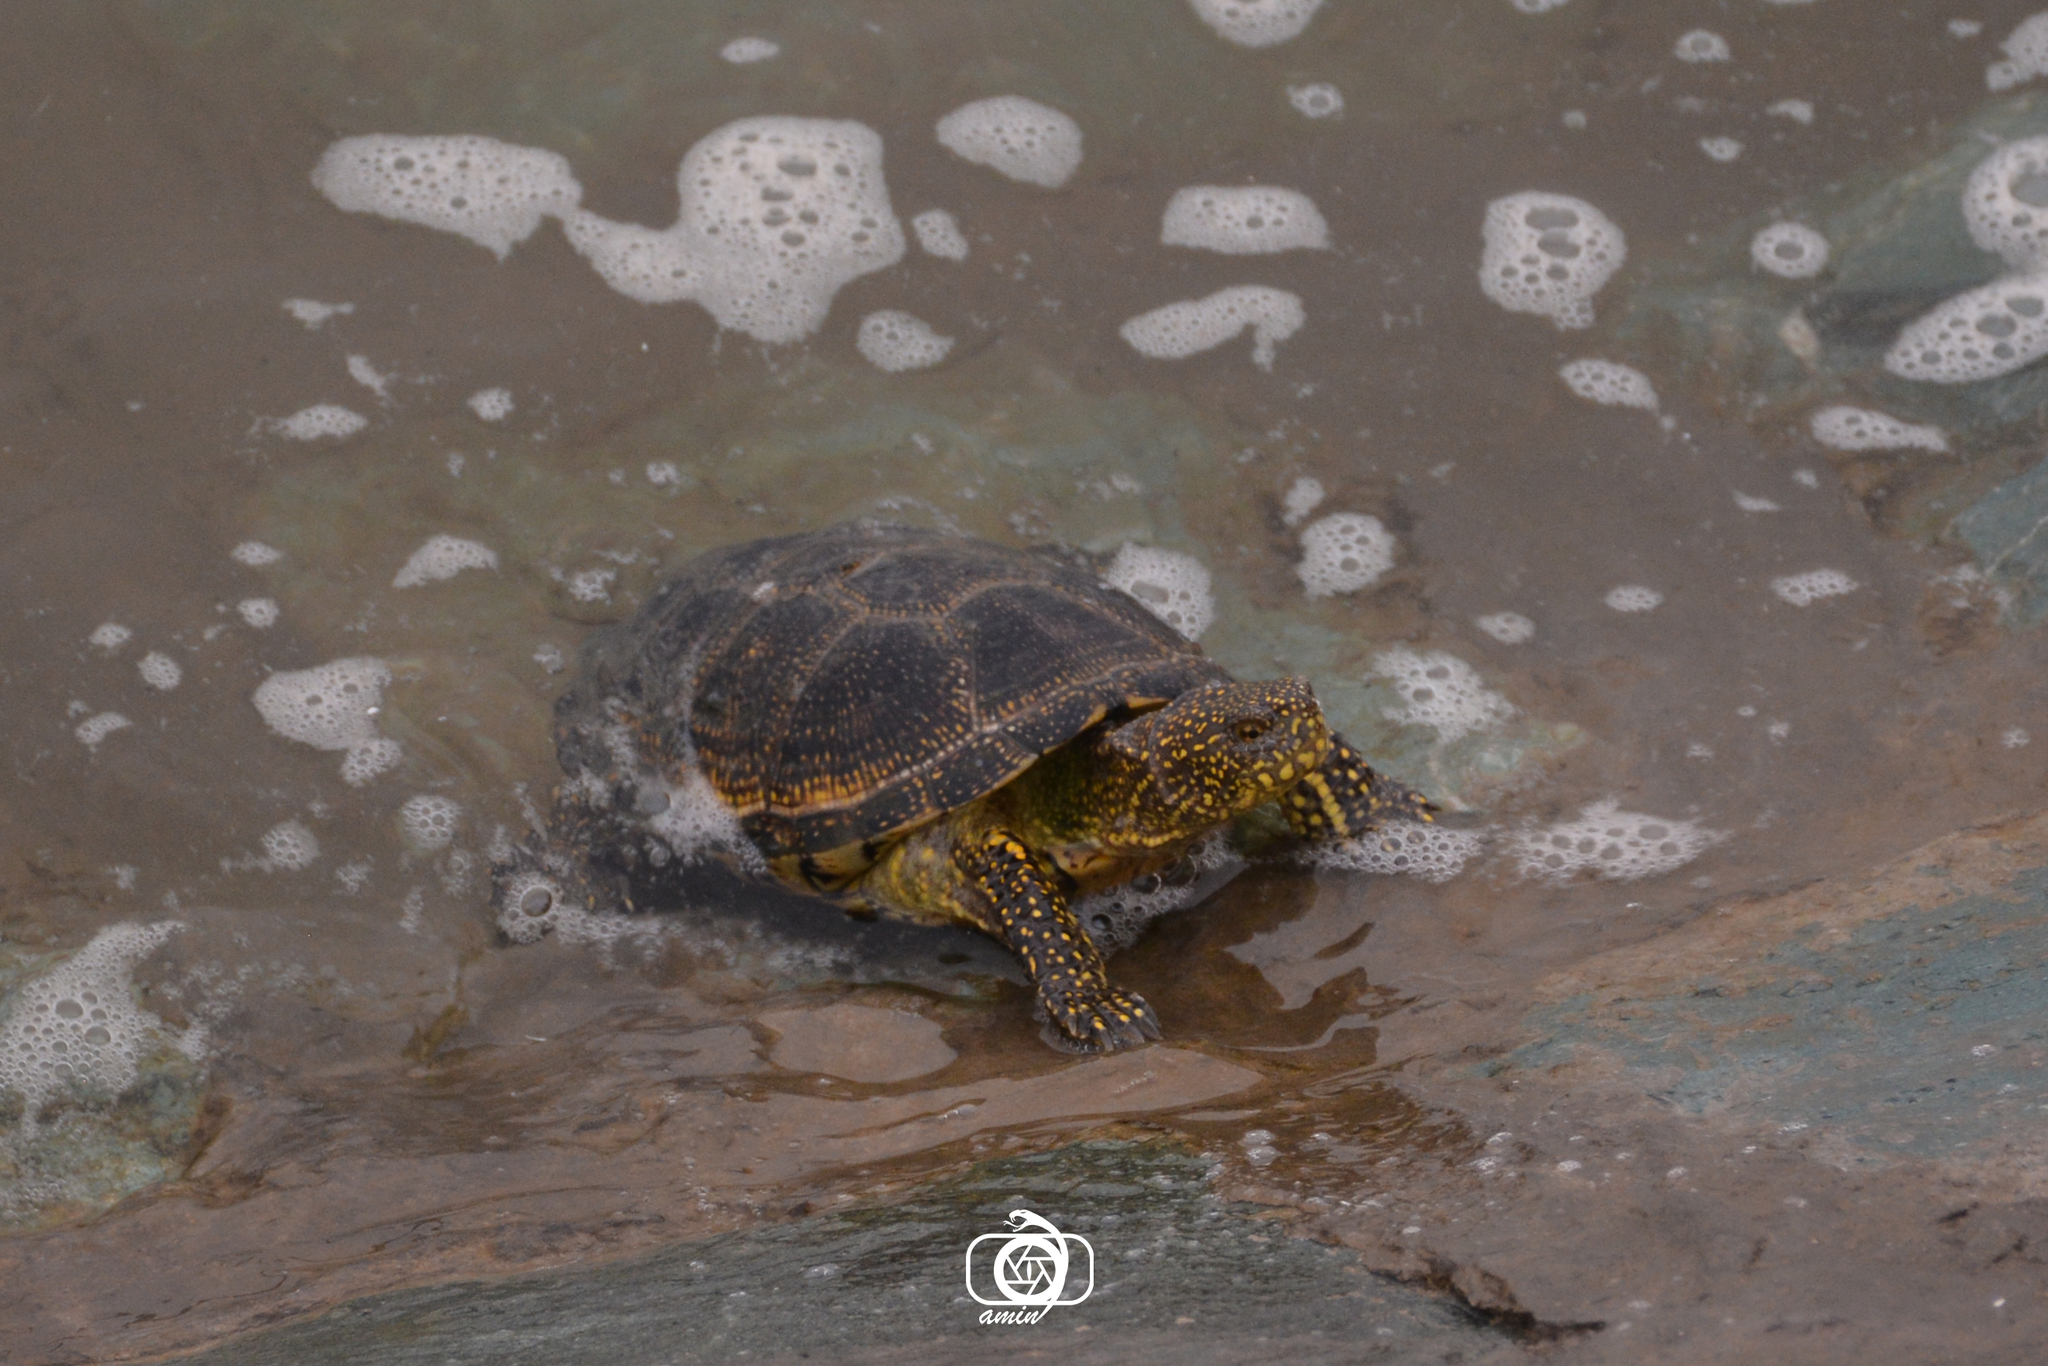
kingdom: Animalia
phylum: Chordata
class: Testudines
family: Emydidae
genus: Emys
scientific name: Emys orbicularis
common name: European pond turtle
